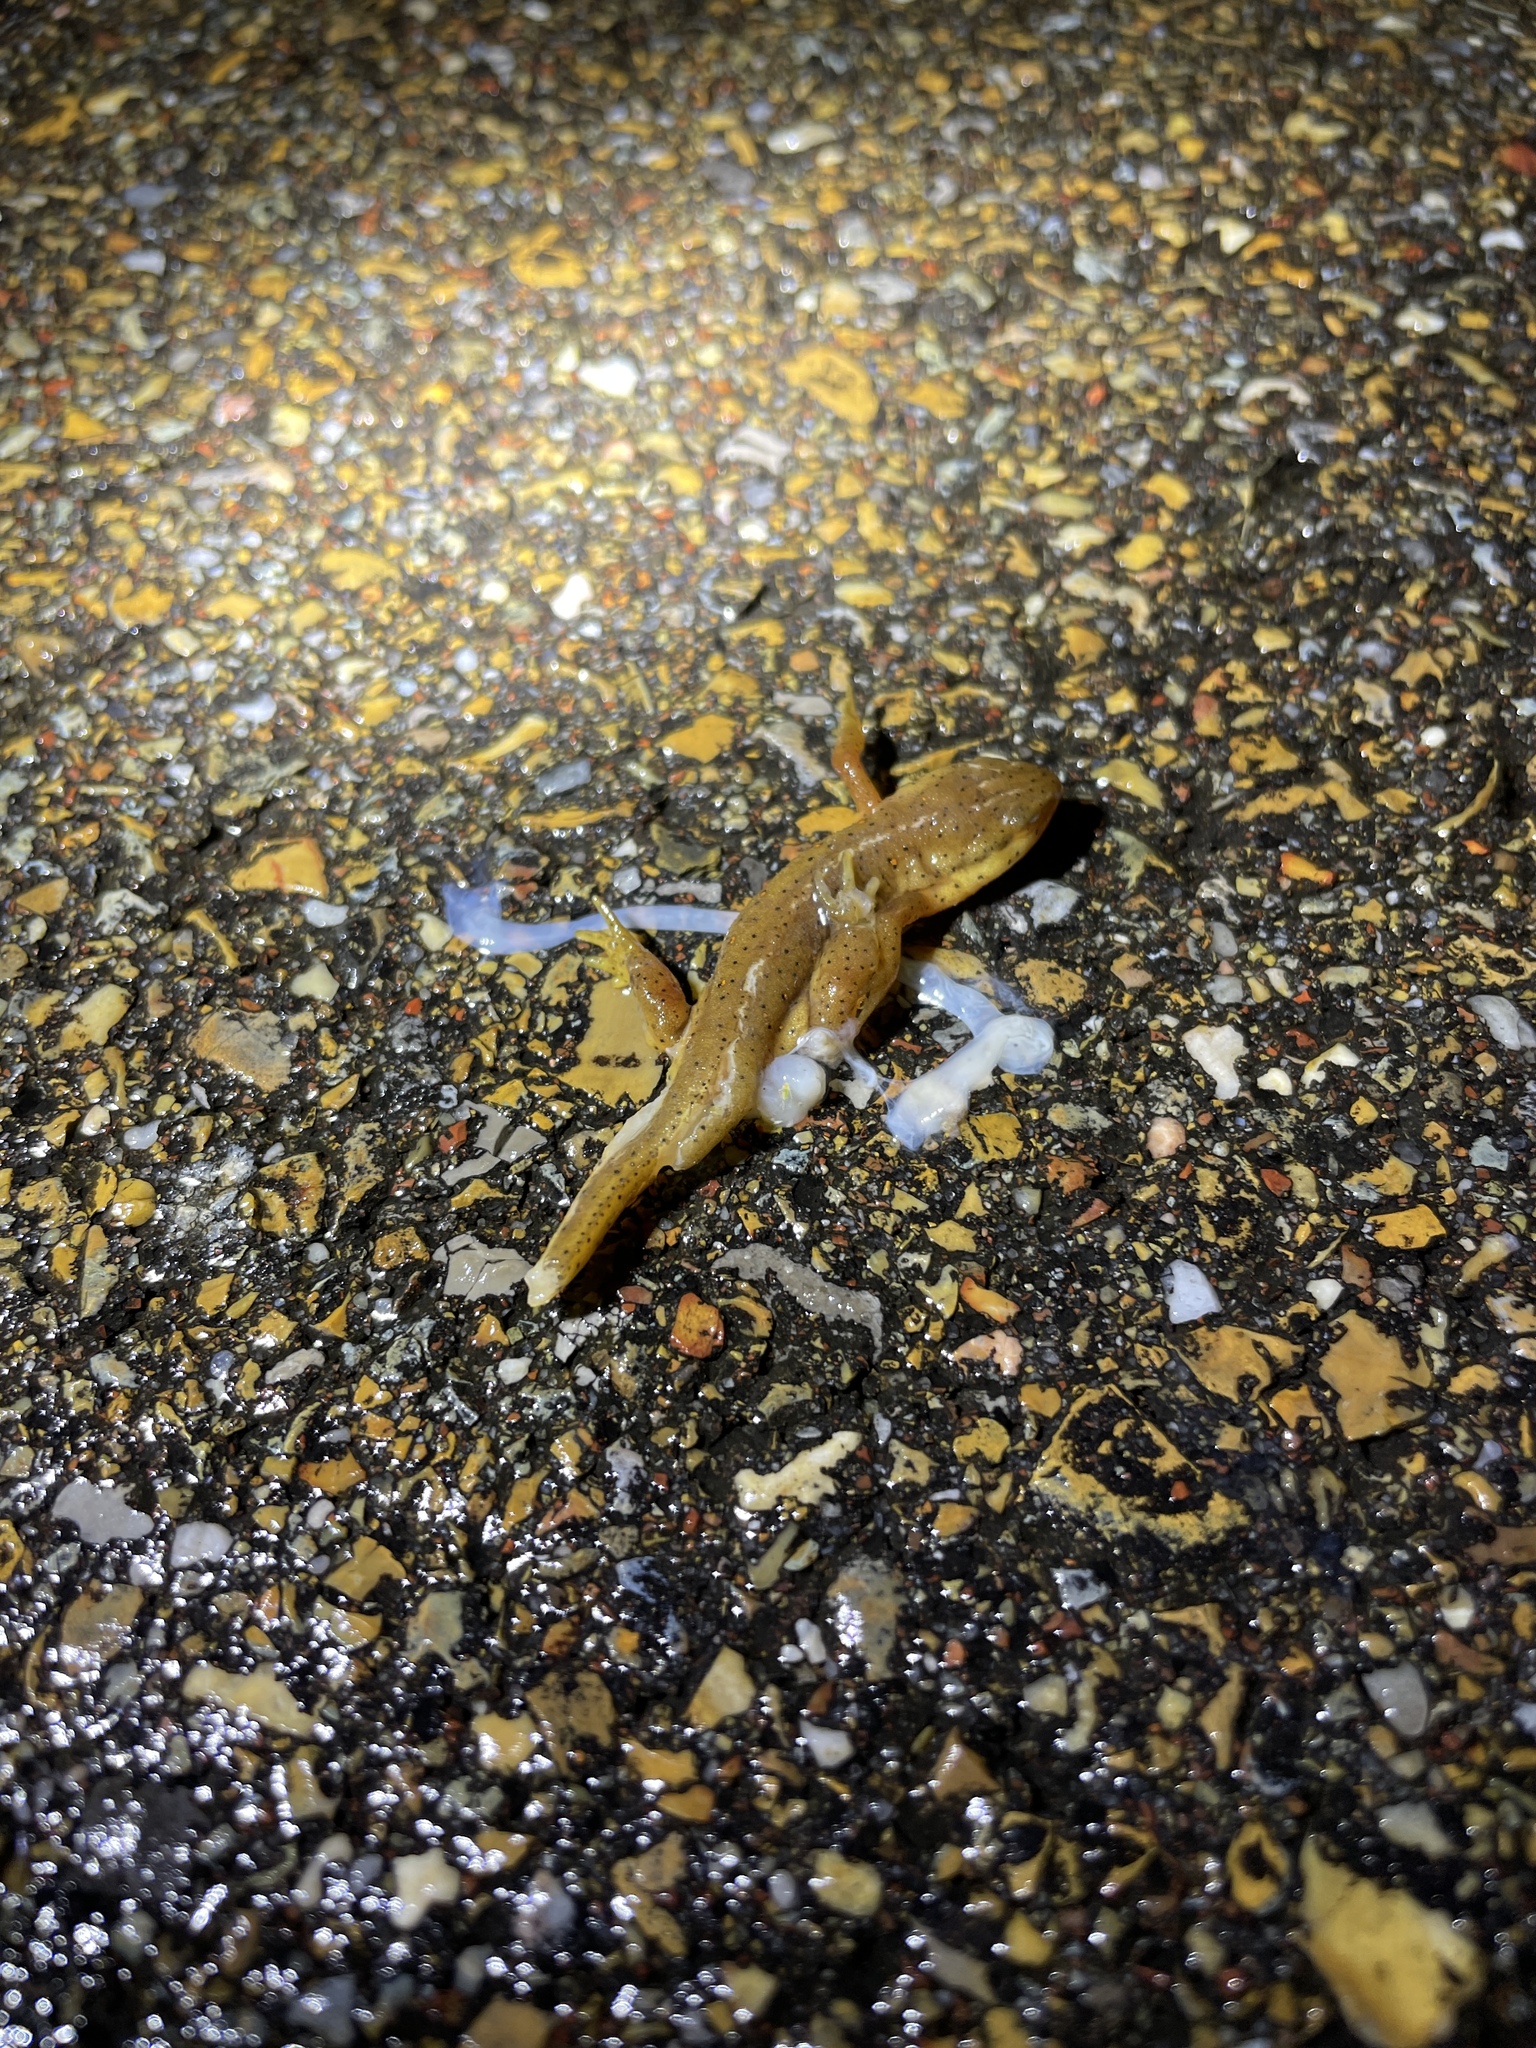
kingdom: Animalia
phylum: Chordata
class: Amphibia
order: Caudata
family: Salamandridae
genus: Notophthalmus
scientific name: Notophthalmus viridescens
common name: Eastern newt
